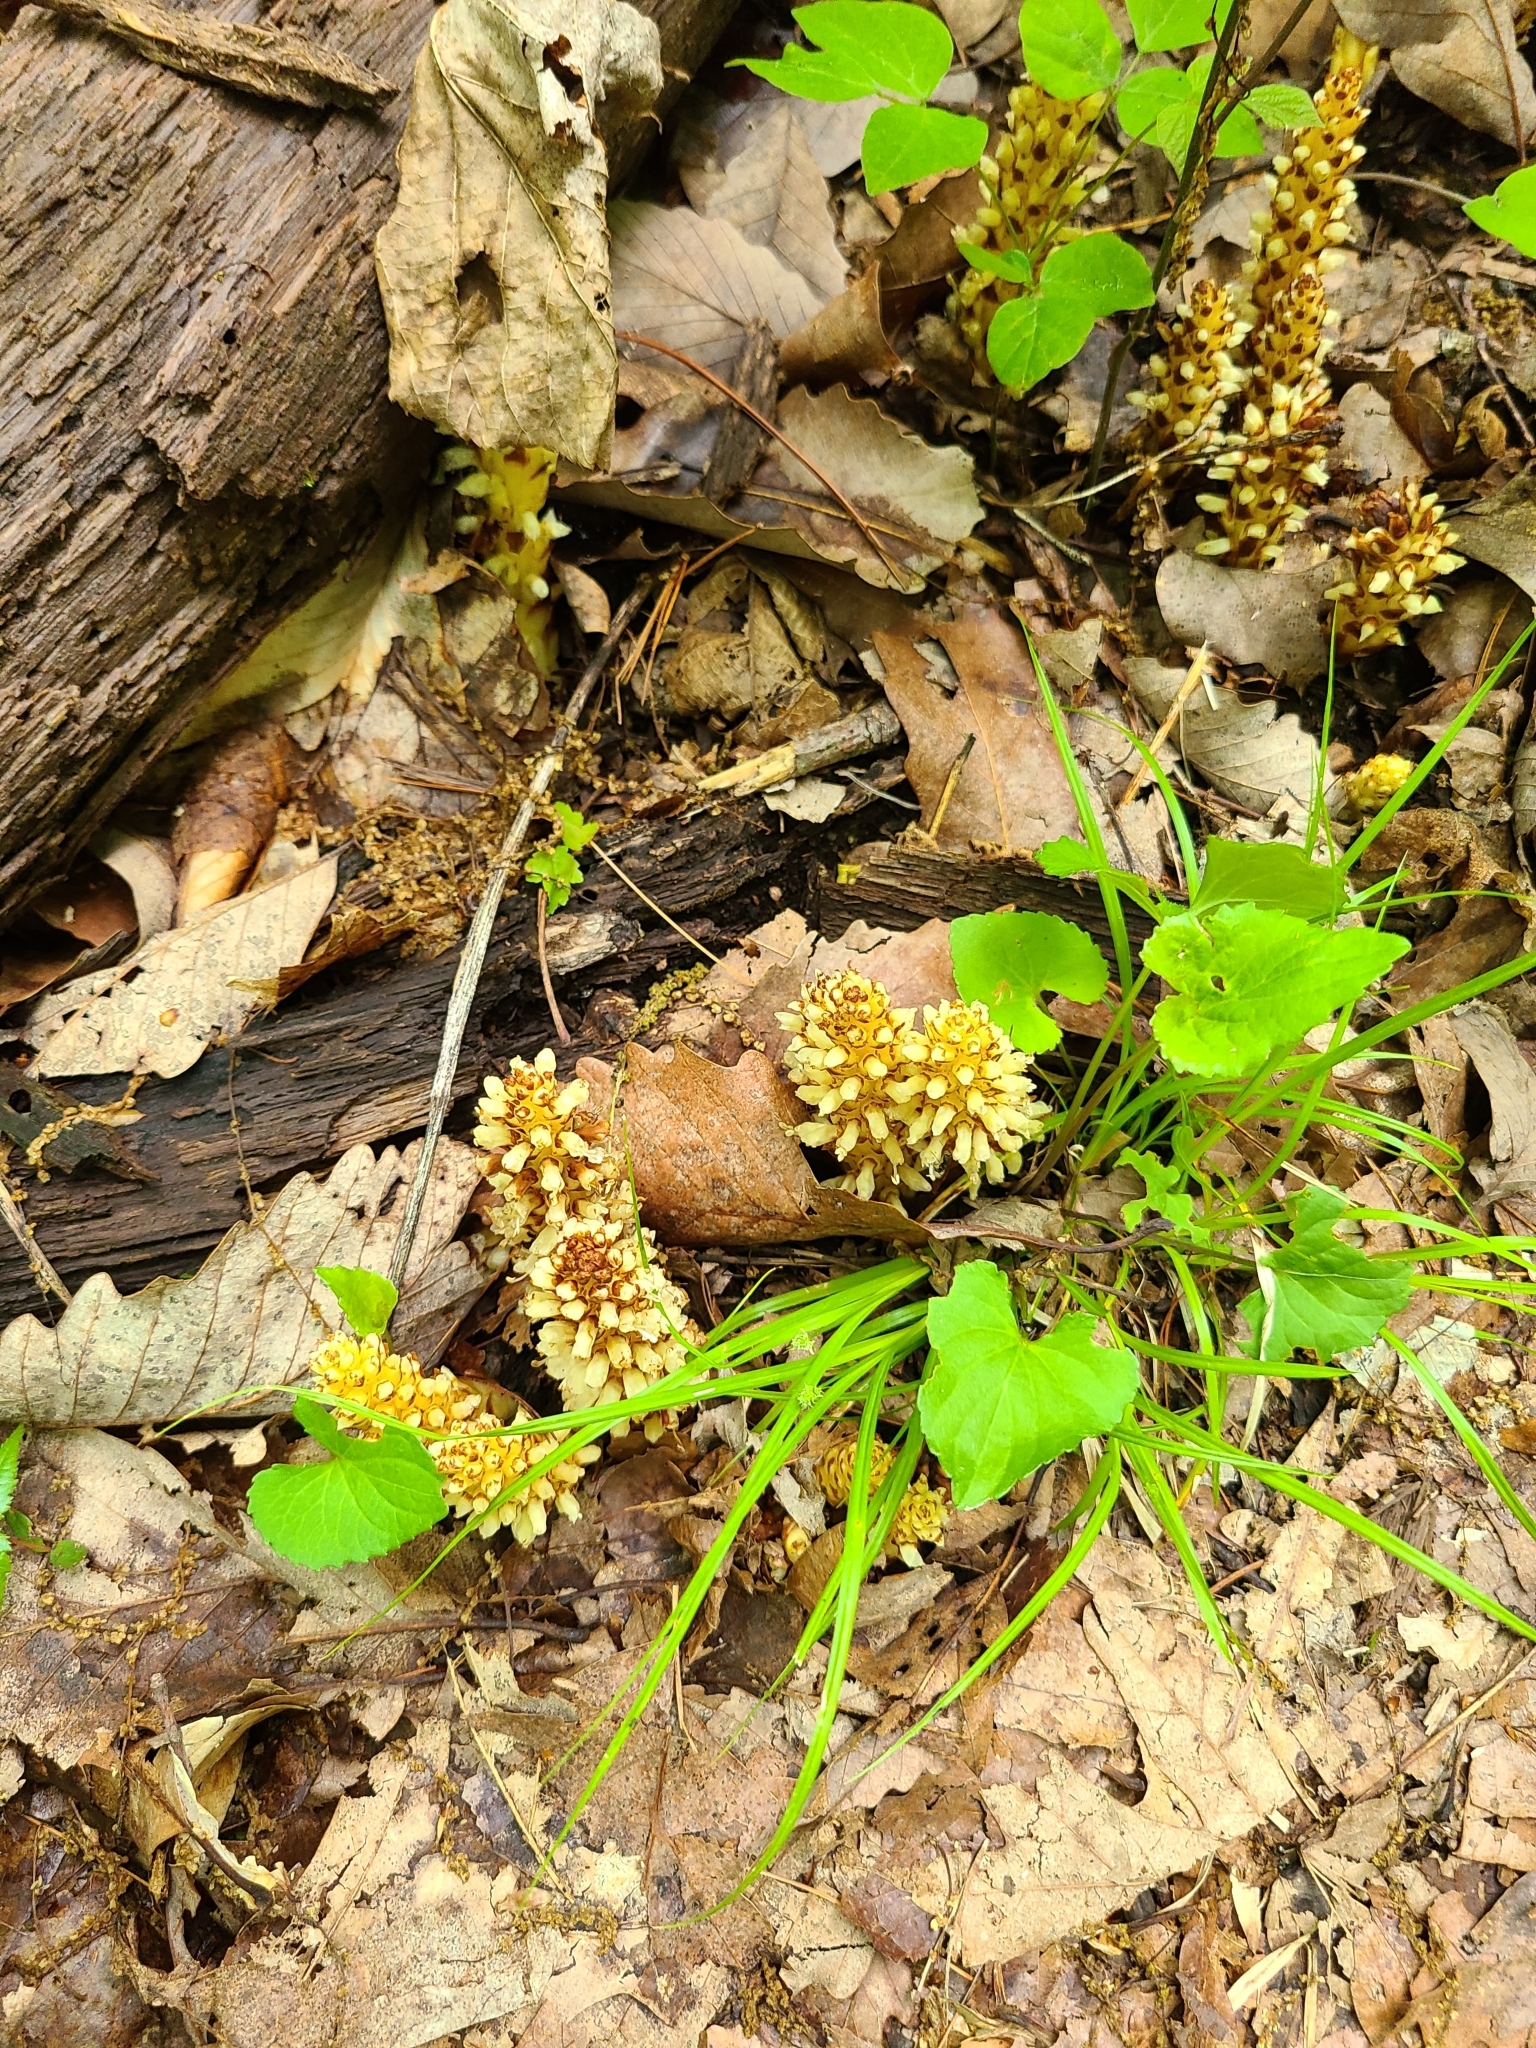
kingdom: Plantae
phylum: Tracheophyta
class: Magnoliopsida
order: Lamiales
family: Orobanchaceae
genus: Conopholis
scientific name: Conopholis americana
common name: American cancer-root
